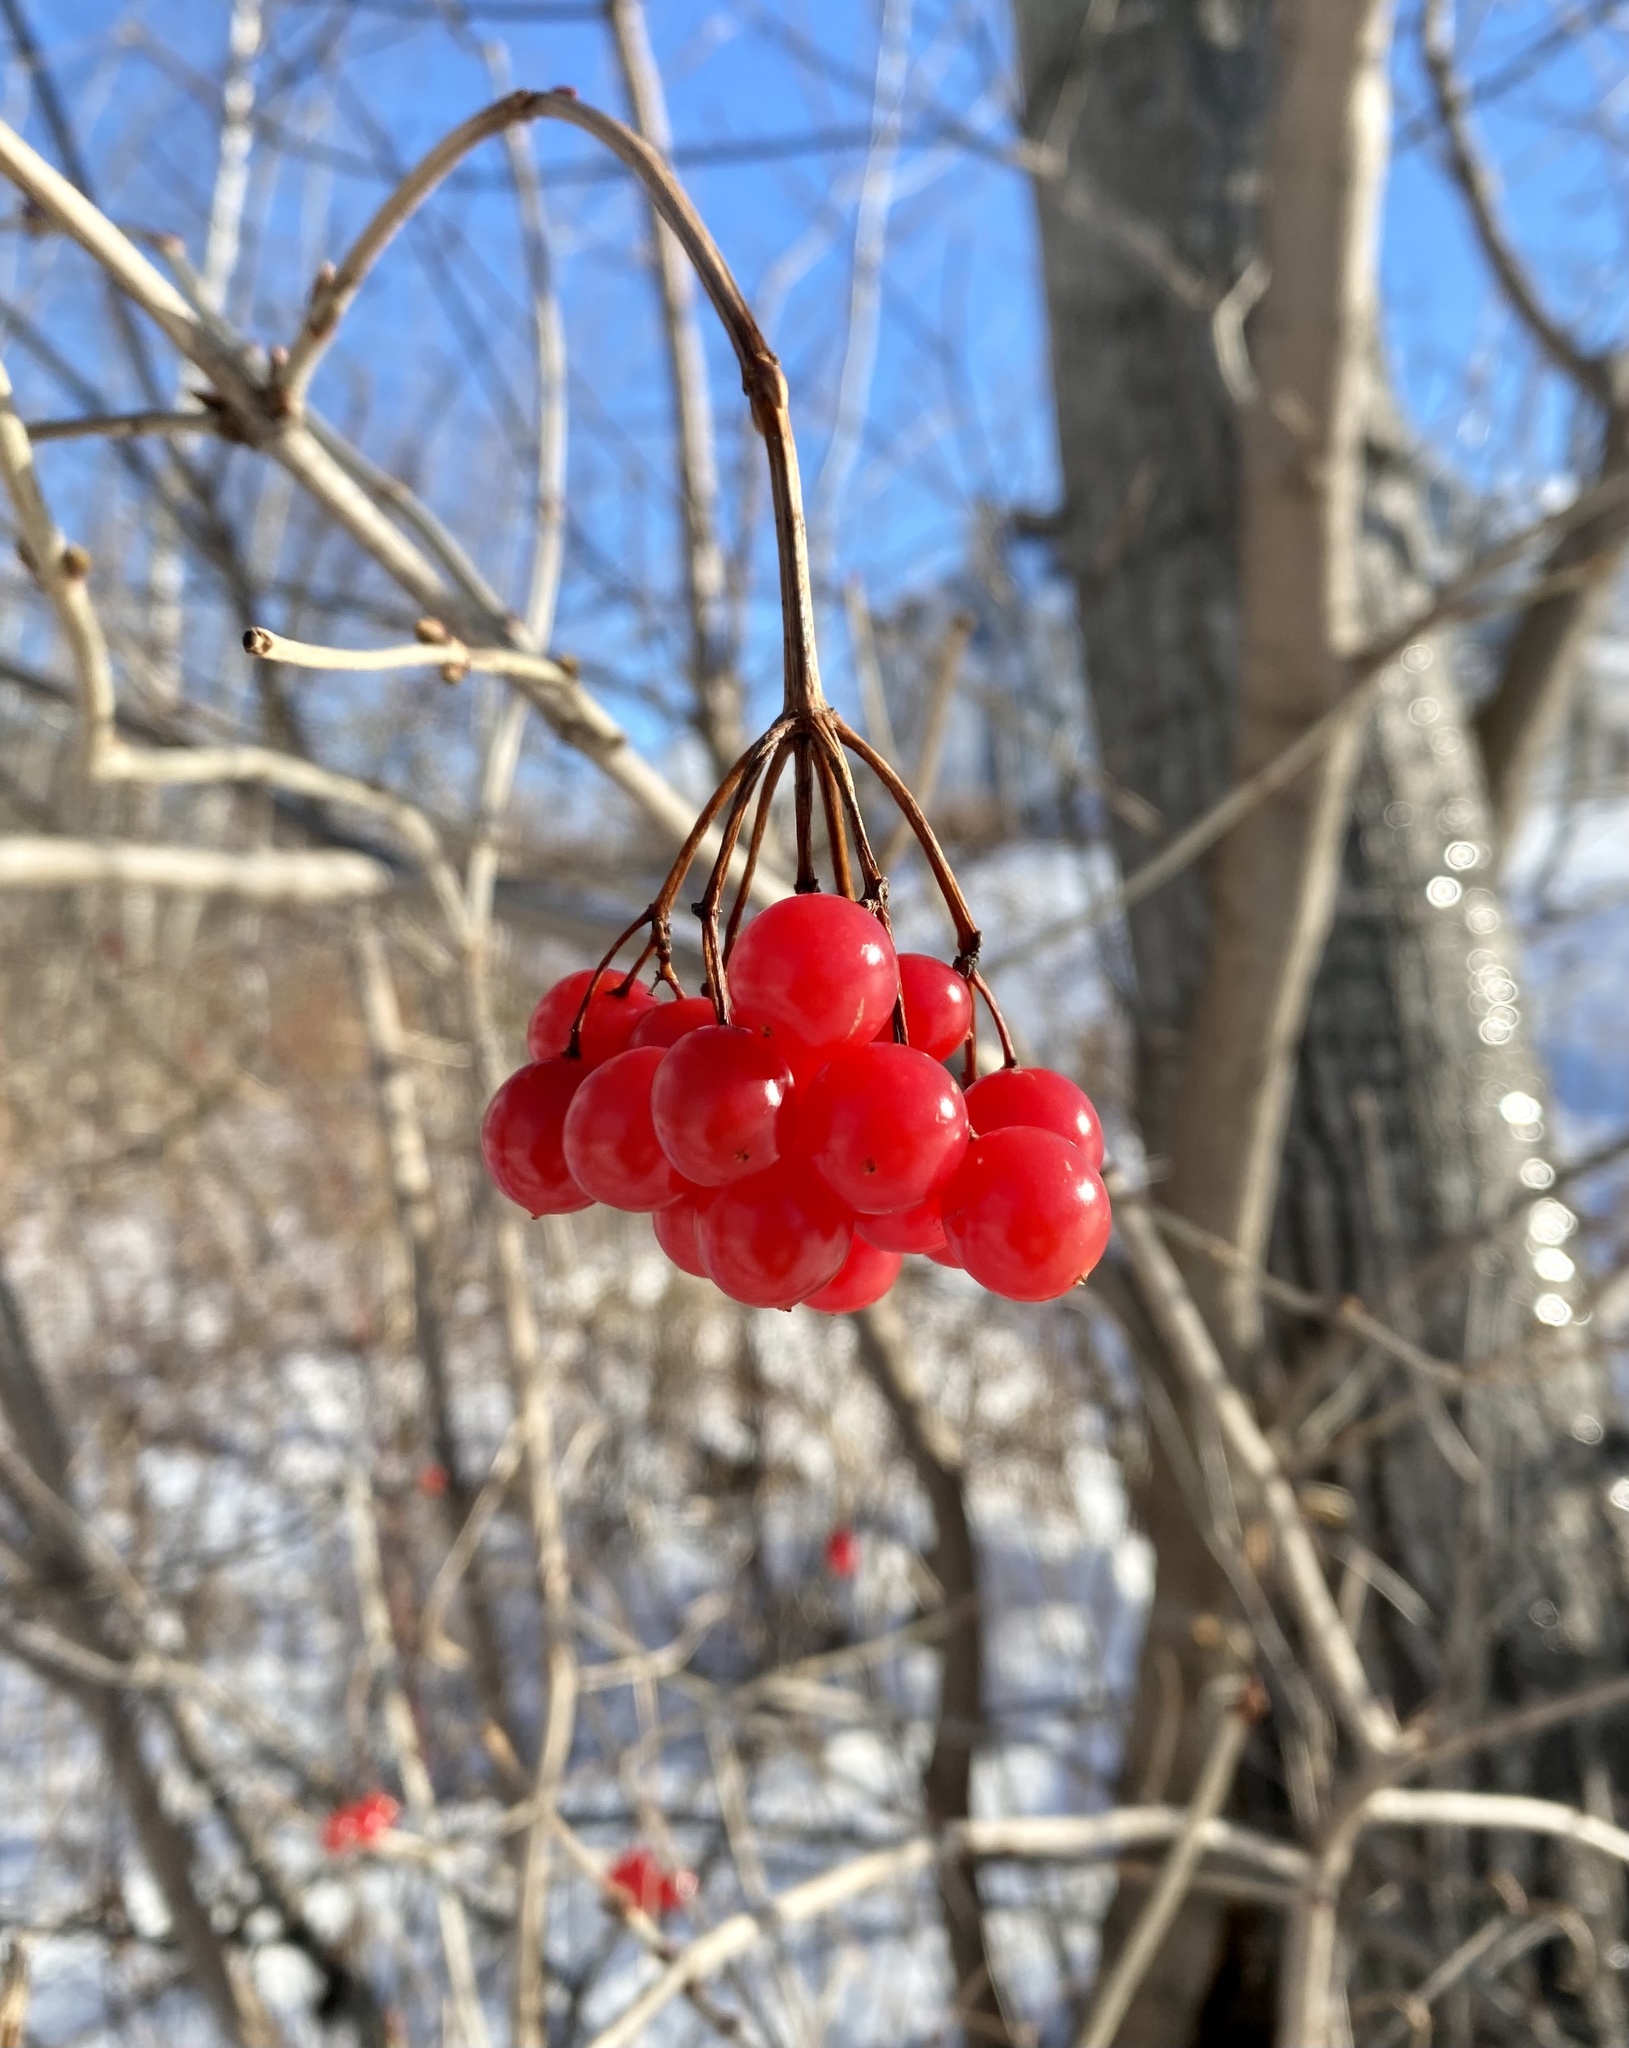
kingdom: Plantae
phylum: Tracheophyta
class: Magnoliopsida
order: Dipsacales
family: Viburnaceae
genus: Viburnum
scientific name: Viburnum opulus
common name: Guelder-rose
